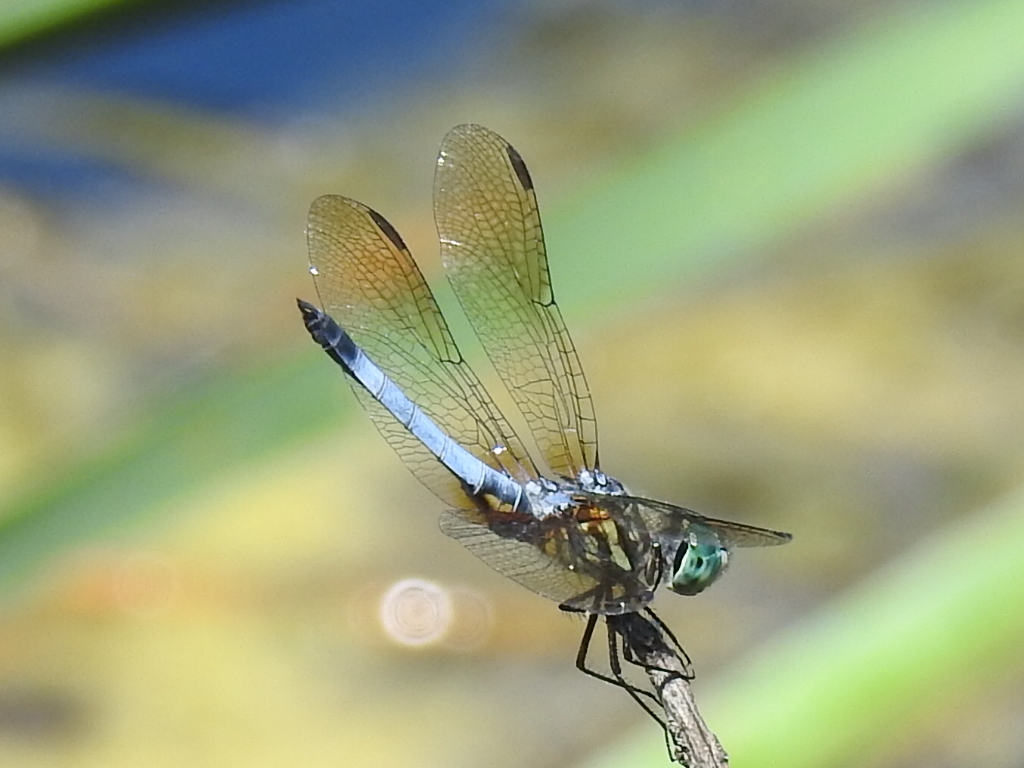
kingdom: Animalia
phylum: Arthropoda
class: Insecta
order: Odonata
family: Libellulidae
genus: Pachydiplax
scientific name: Pachydiplax longipennis
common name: Blue dasher
